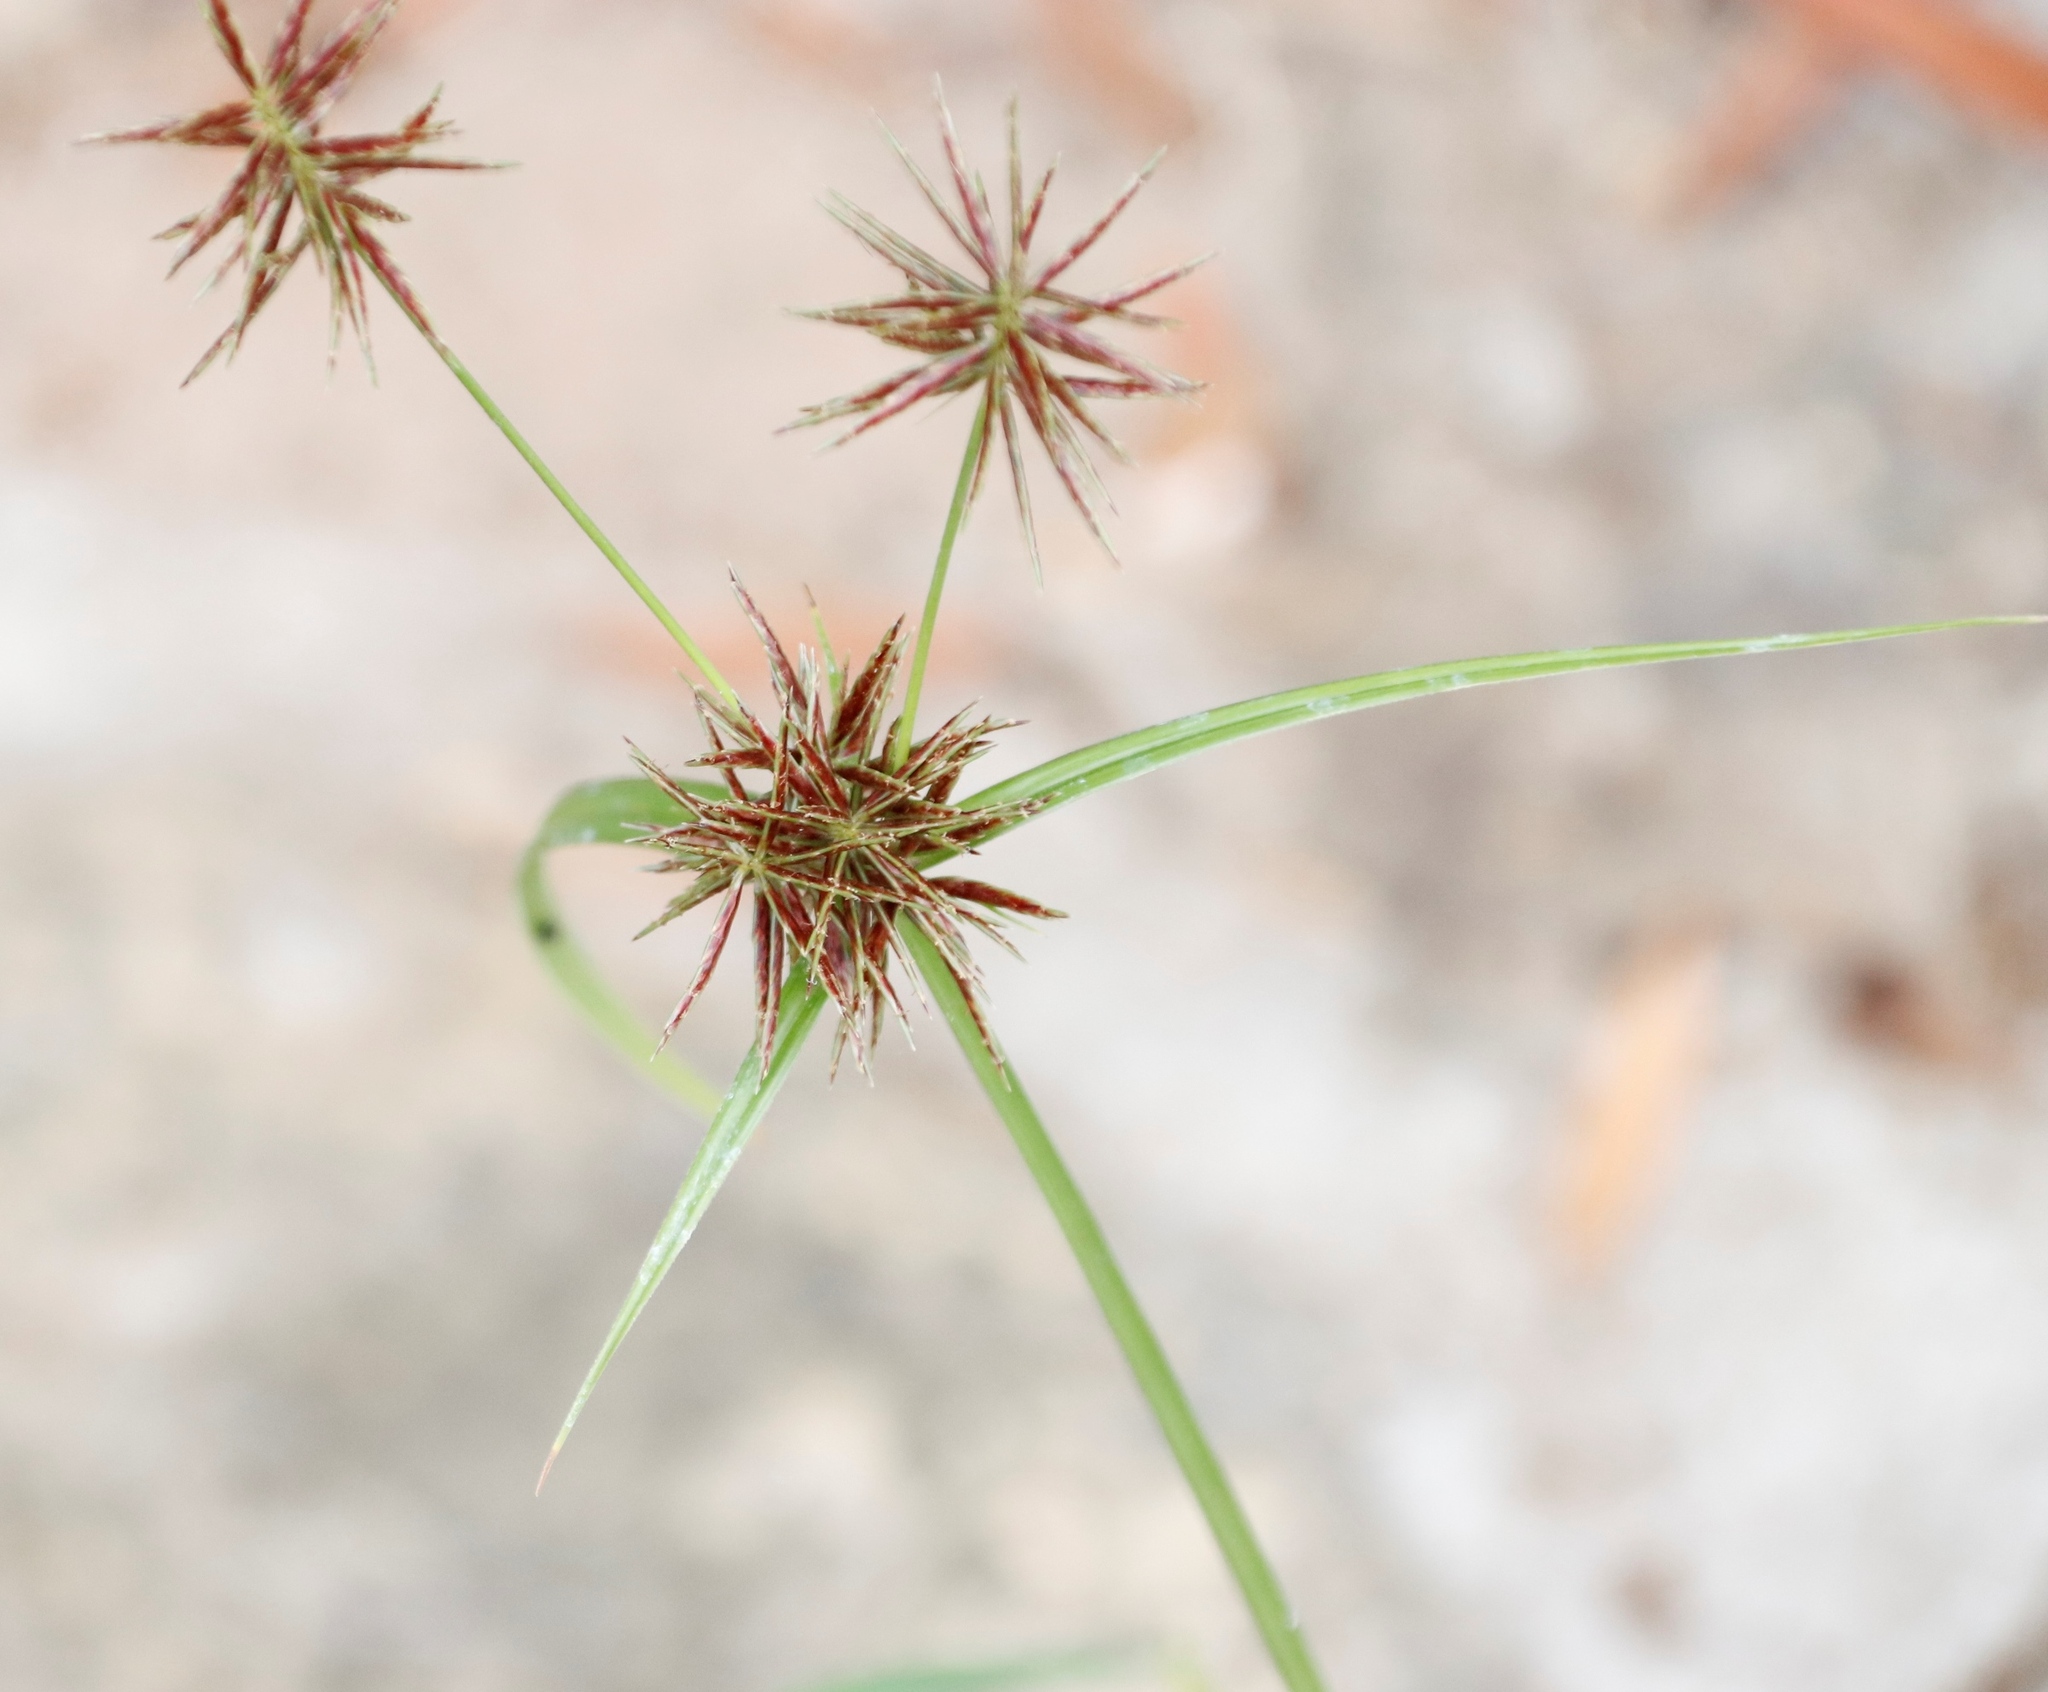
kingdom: Plantae
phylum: Tracheophyta
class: Liliopsida
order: Poales
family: Cyperaceae
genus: Cyperus
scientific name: Cyperus congestus
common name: Dense flat sedge
